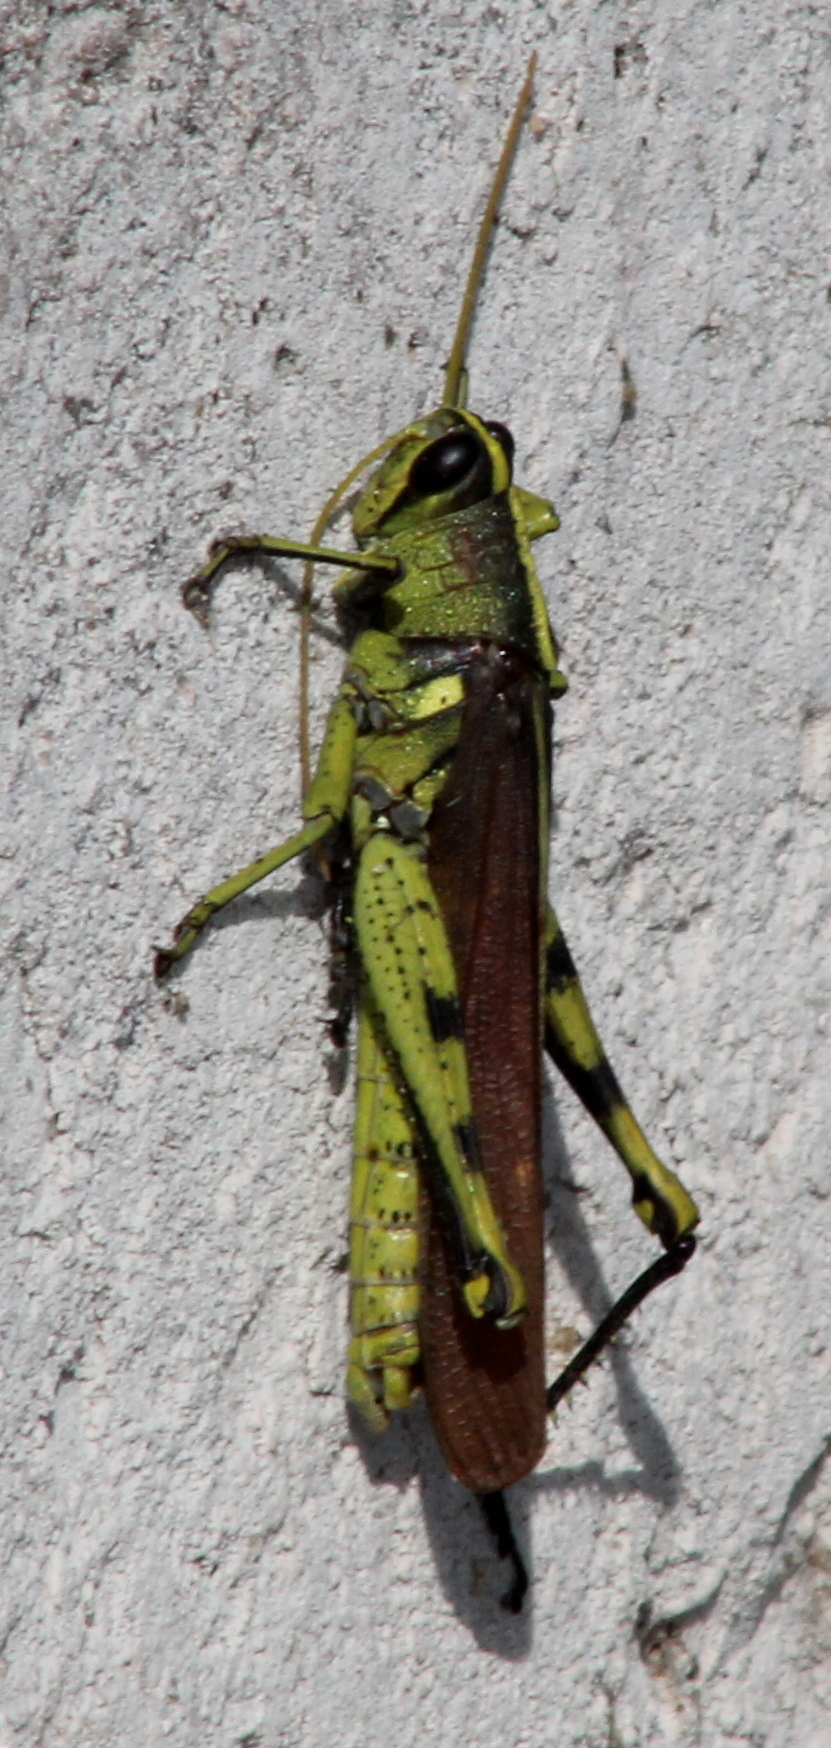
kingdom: Animalia
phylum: Arthropoda
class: Insecta
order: Orthoptera
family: Acrididae
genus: Schistocerca
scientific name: Schistocerca obscura
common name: Obscure bird grasshopper
